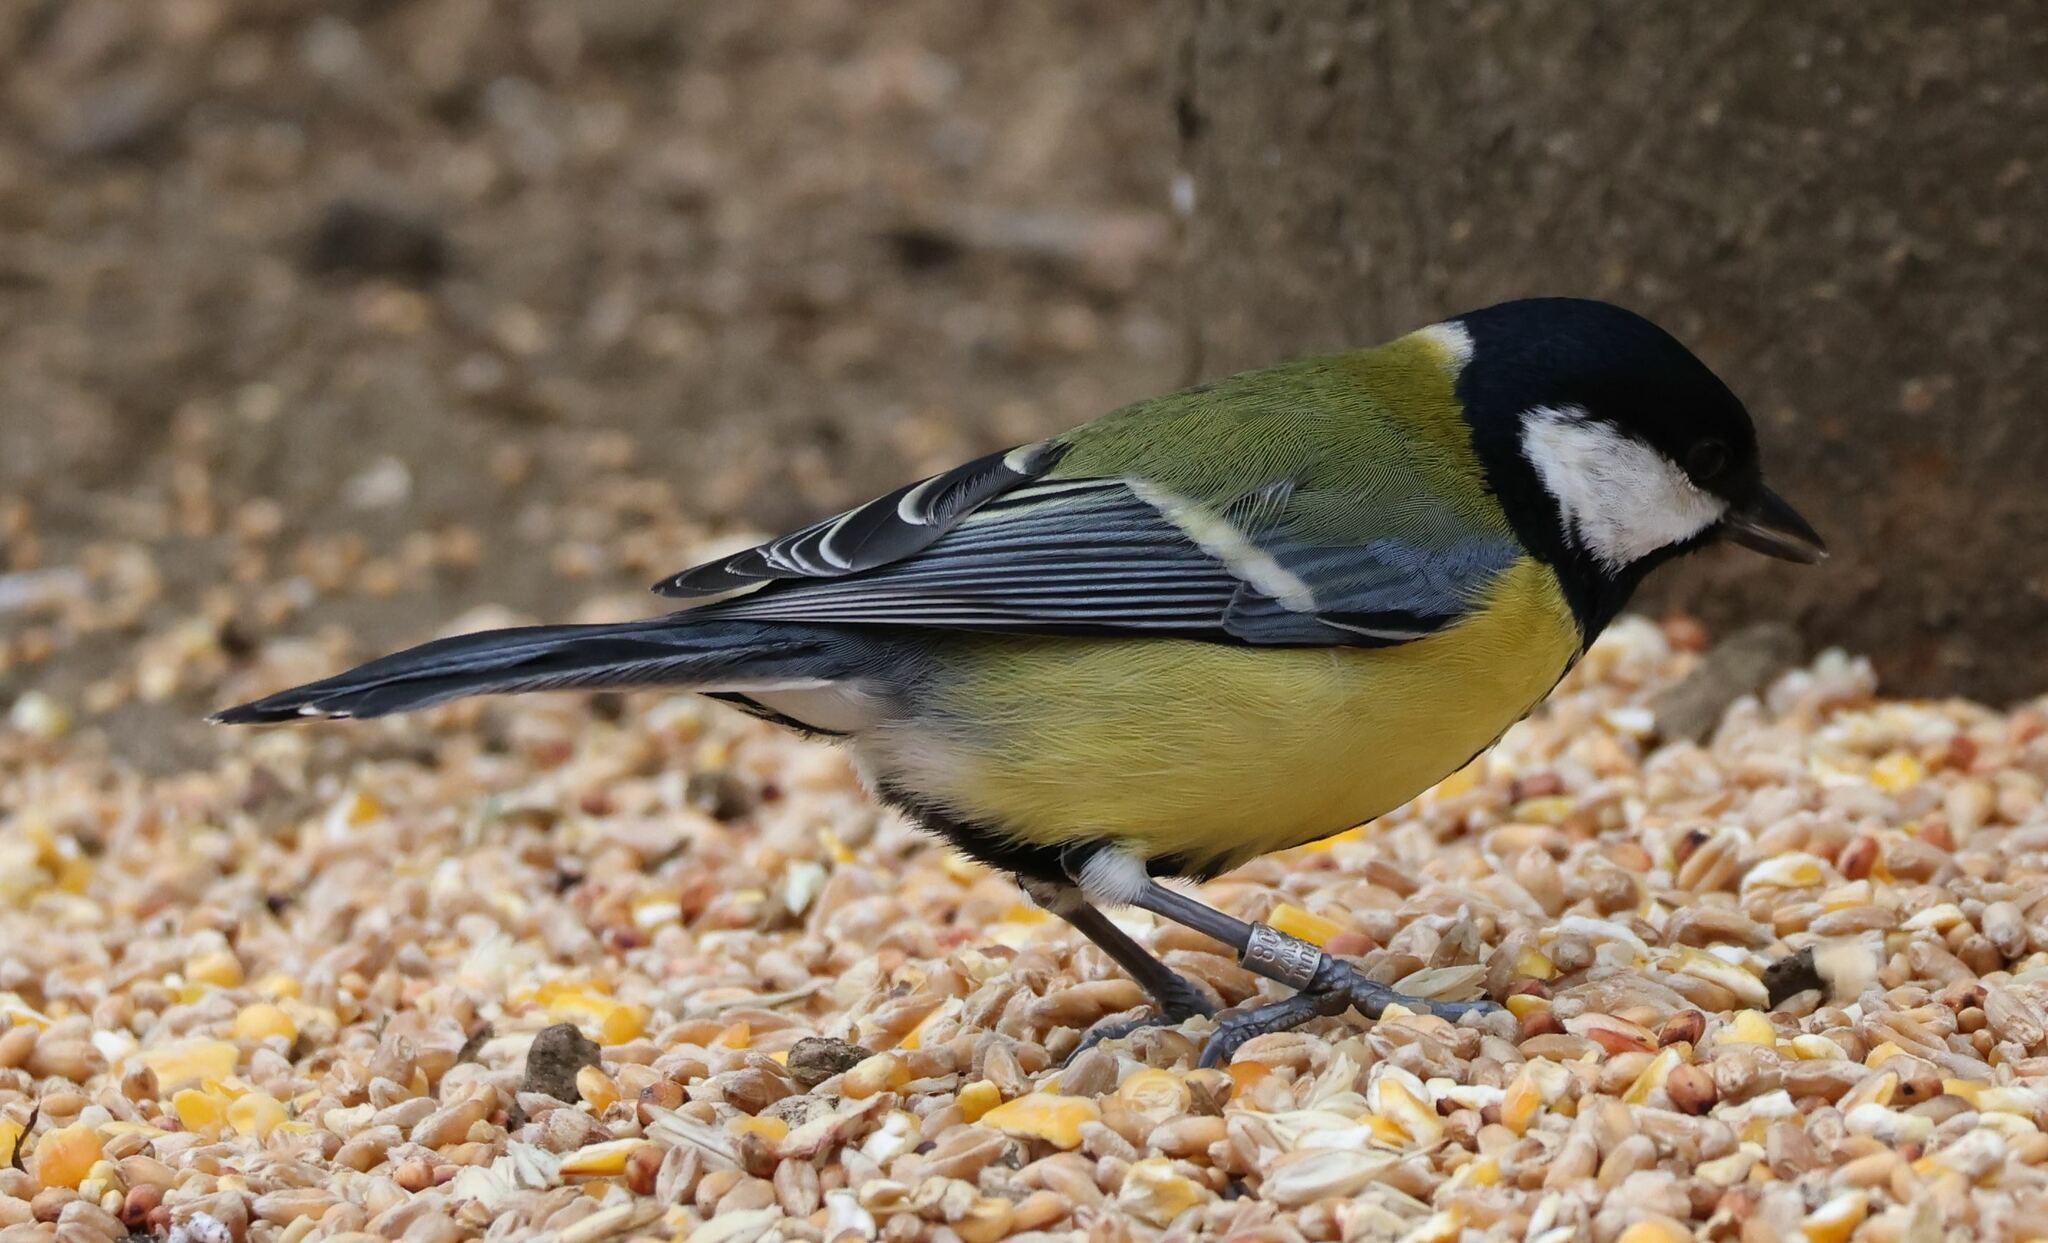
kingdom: Animalia
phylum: Chordata
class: Aves
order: Passeriformes
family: Paridae
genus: Parus
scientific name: Parus major
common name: Great tit
